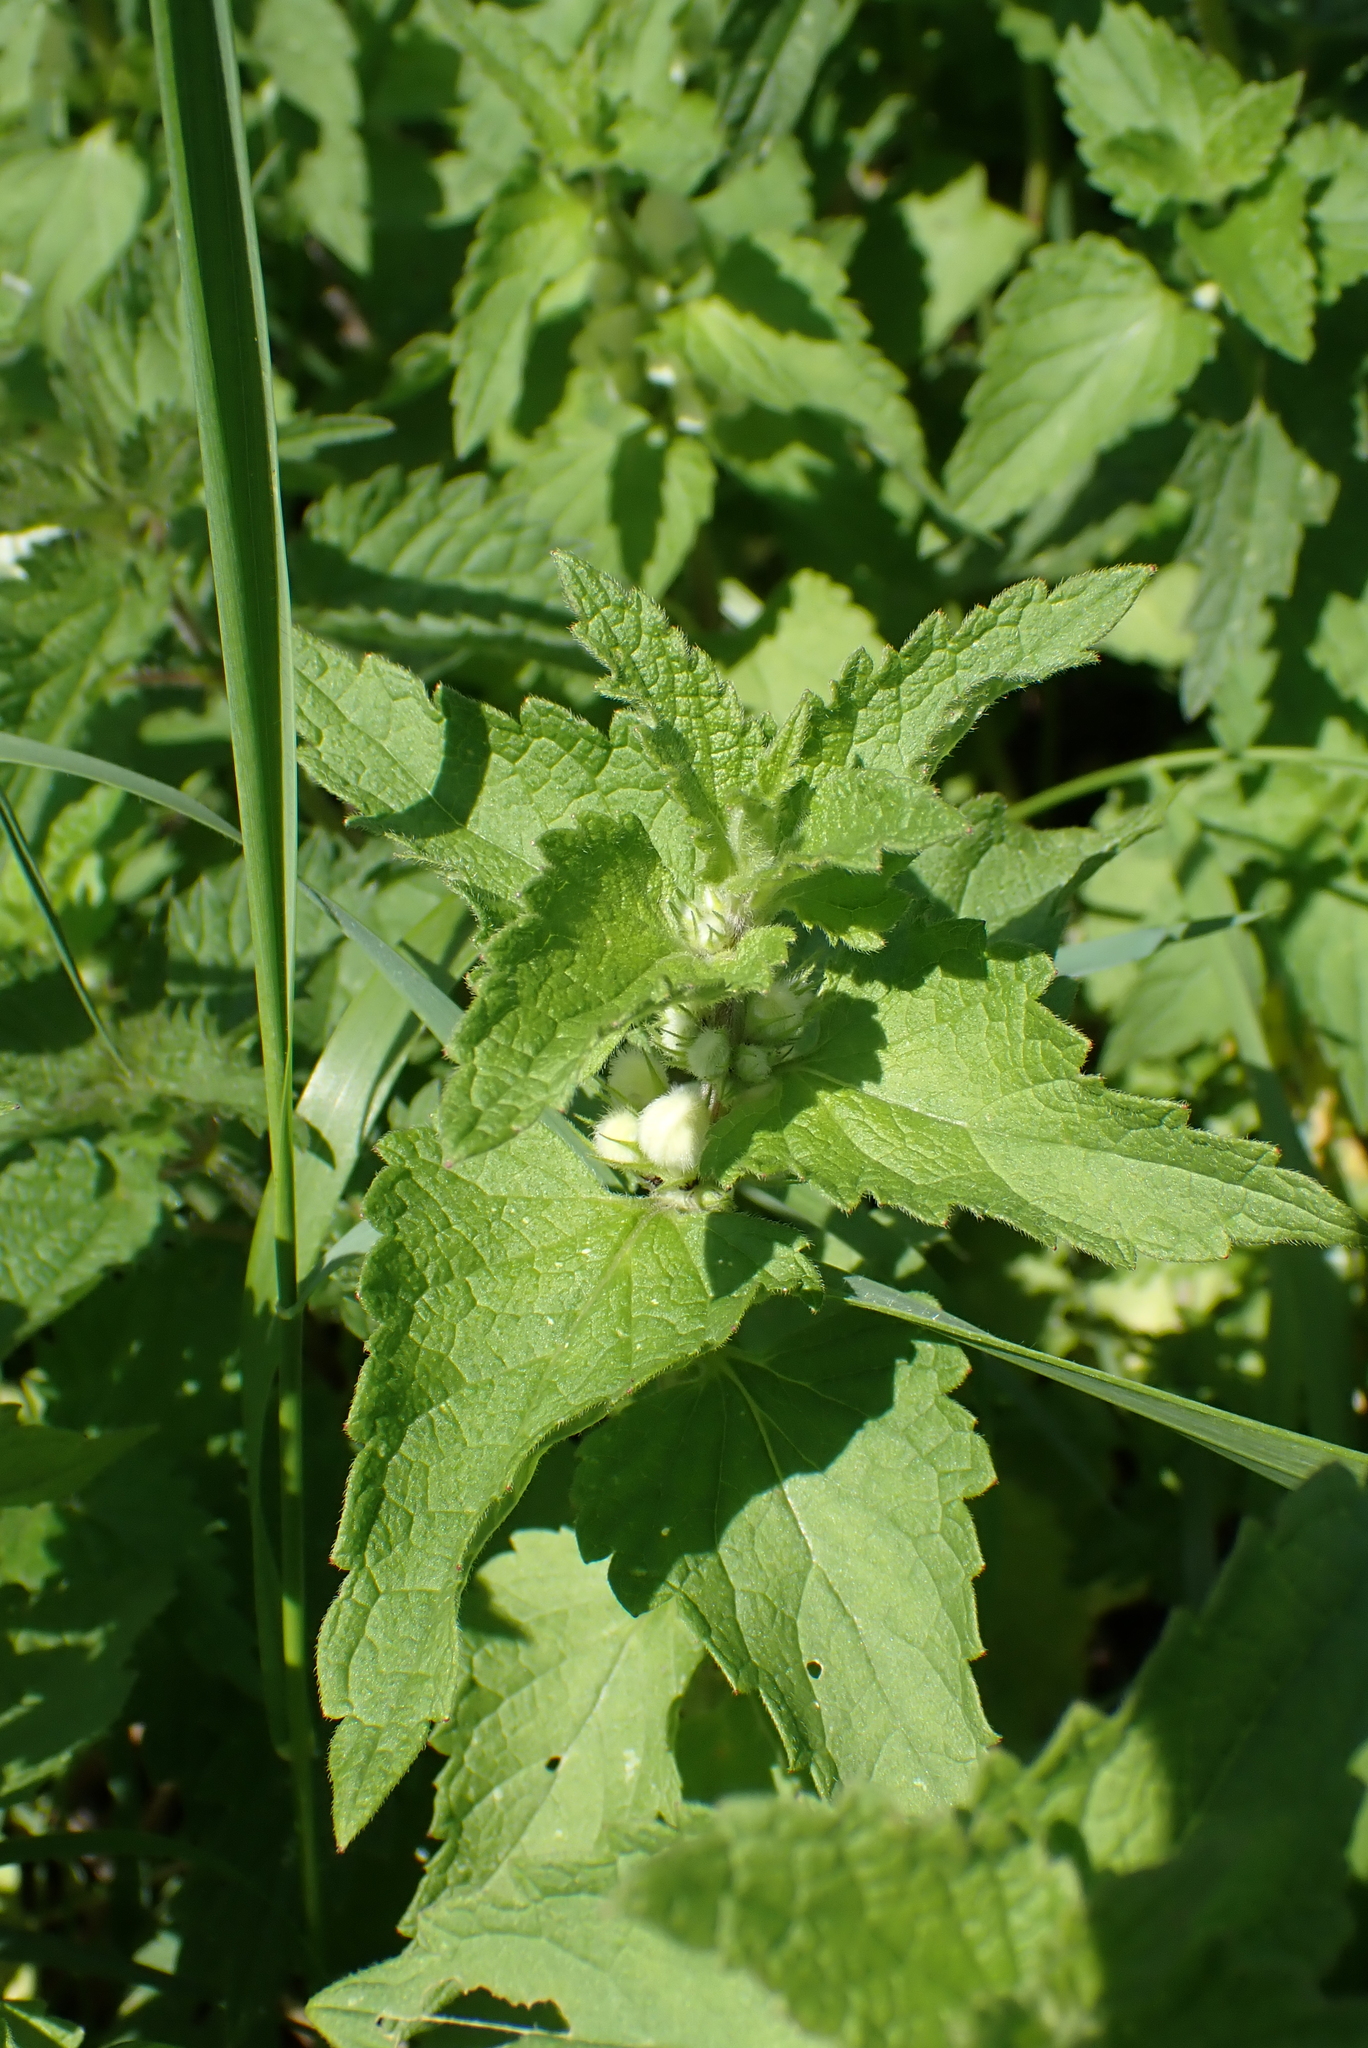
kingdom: Plantae
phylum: Tracheophyta
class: Magnoliopsida
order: Lamiales
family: Lamiaceae
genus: Lamium
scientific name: Lamium album
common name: White dead-nettle
